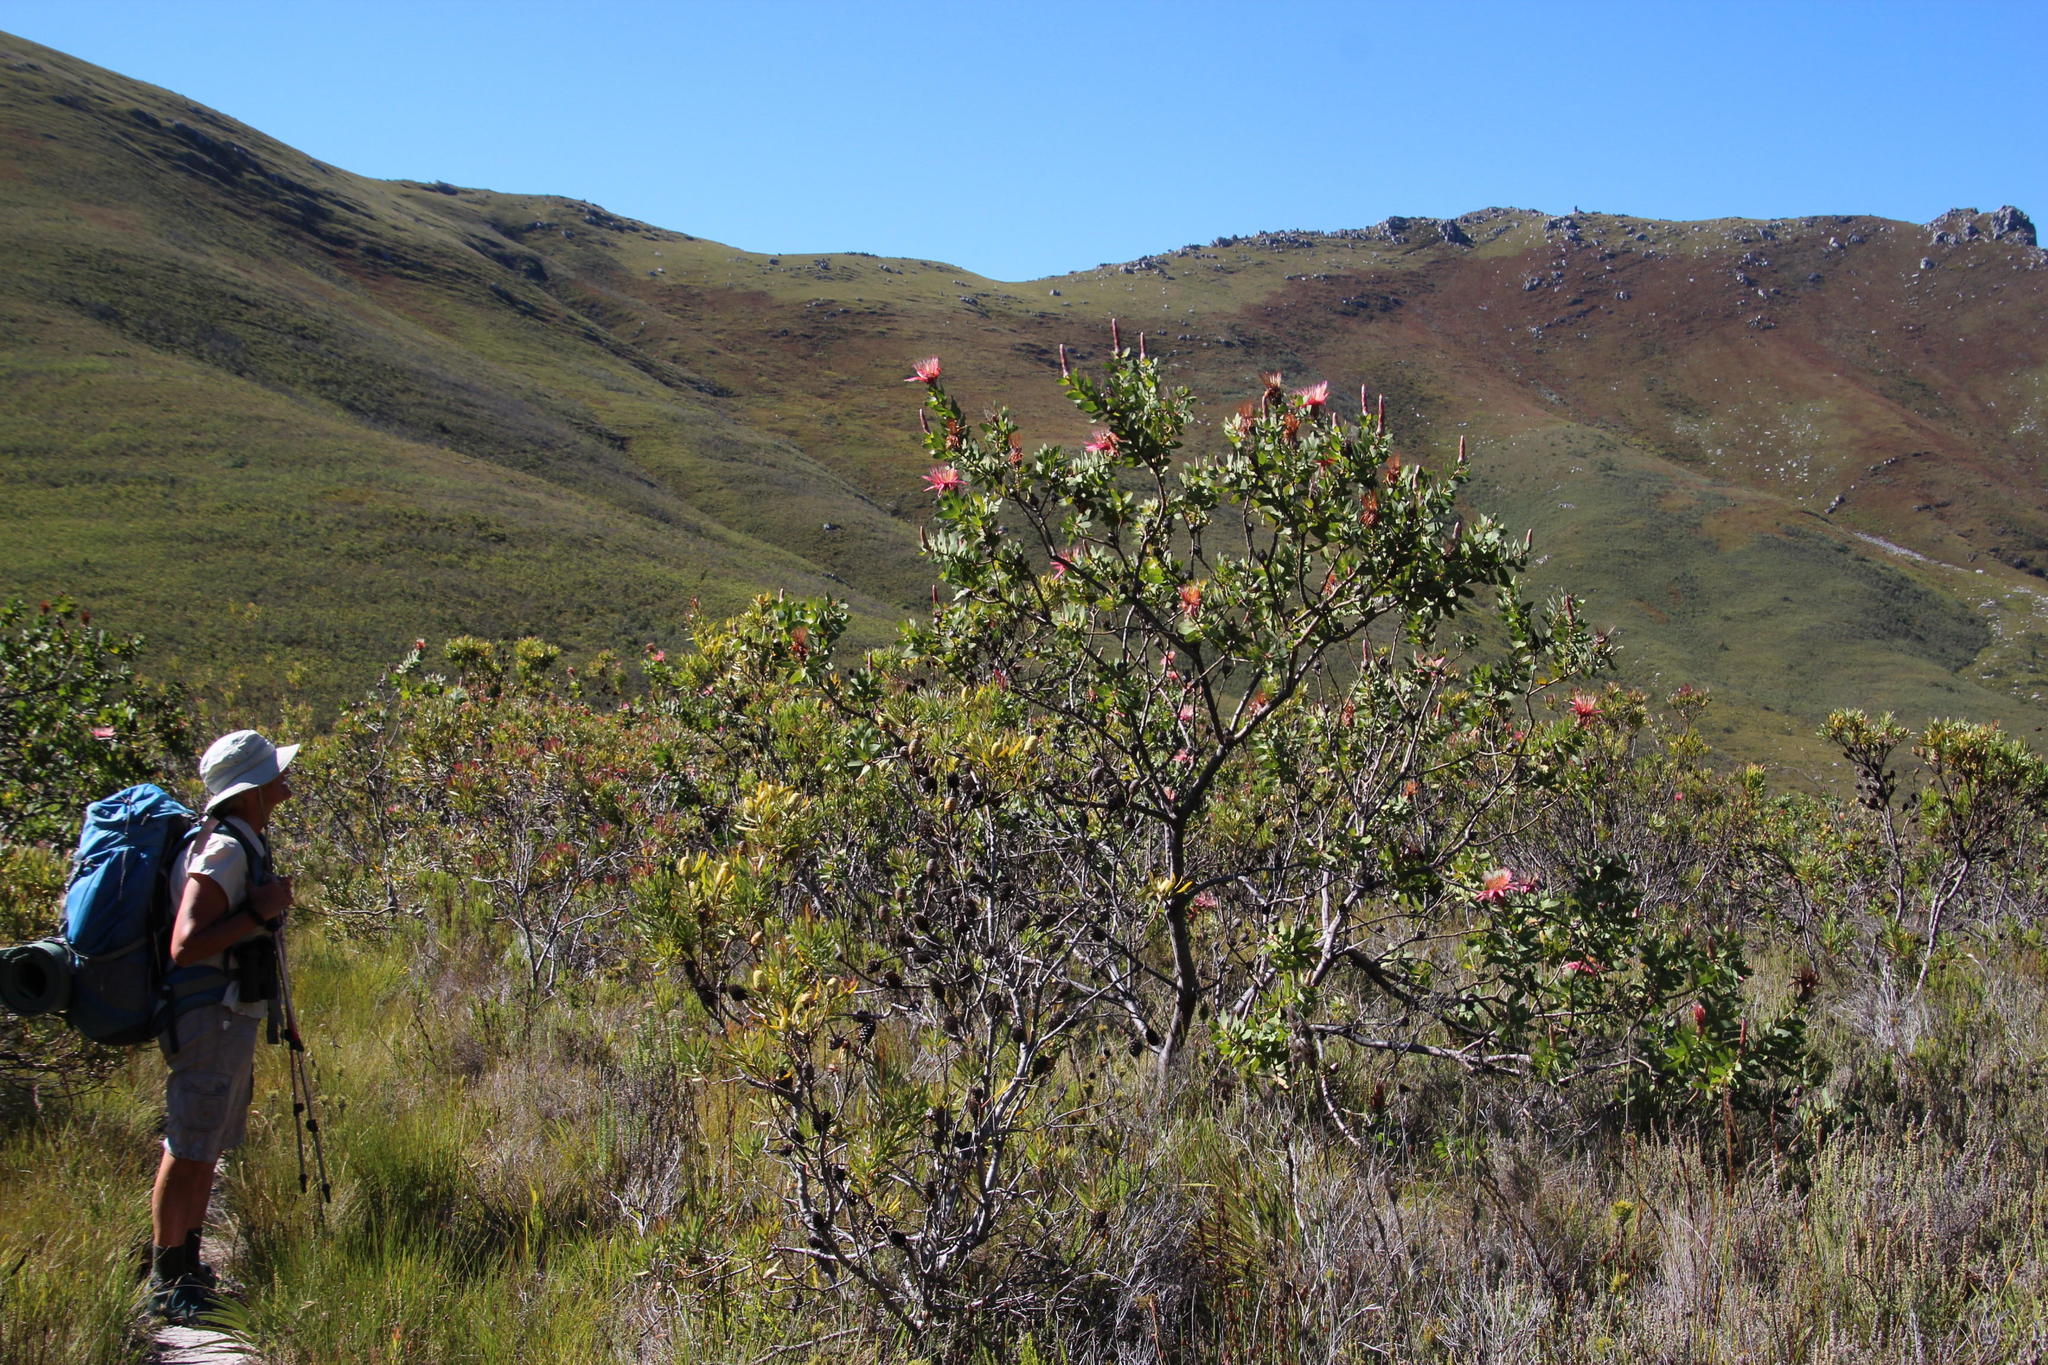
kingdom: Plantae
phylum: Tracheophyta
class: Magnoliopsida
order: Proteales
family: Proteaceae
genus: Protea
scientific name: Protea aurea
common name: Shuttlecock sugarbush
